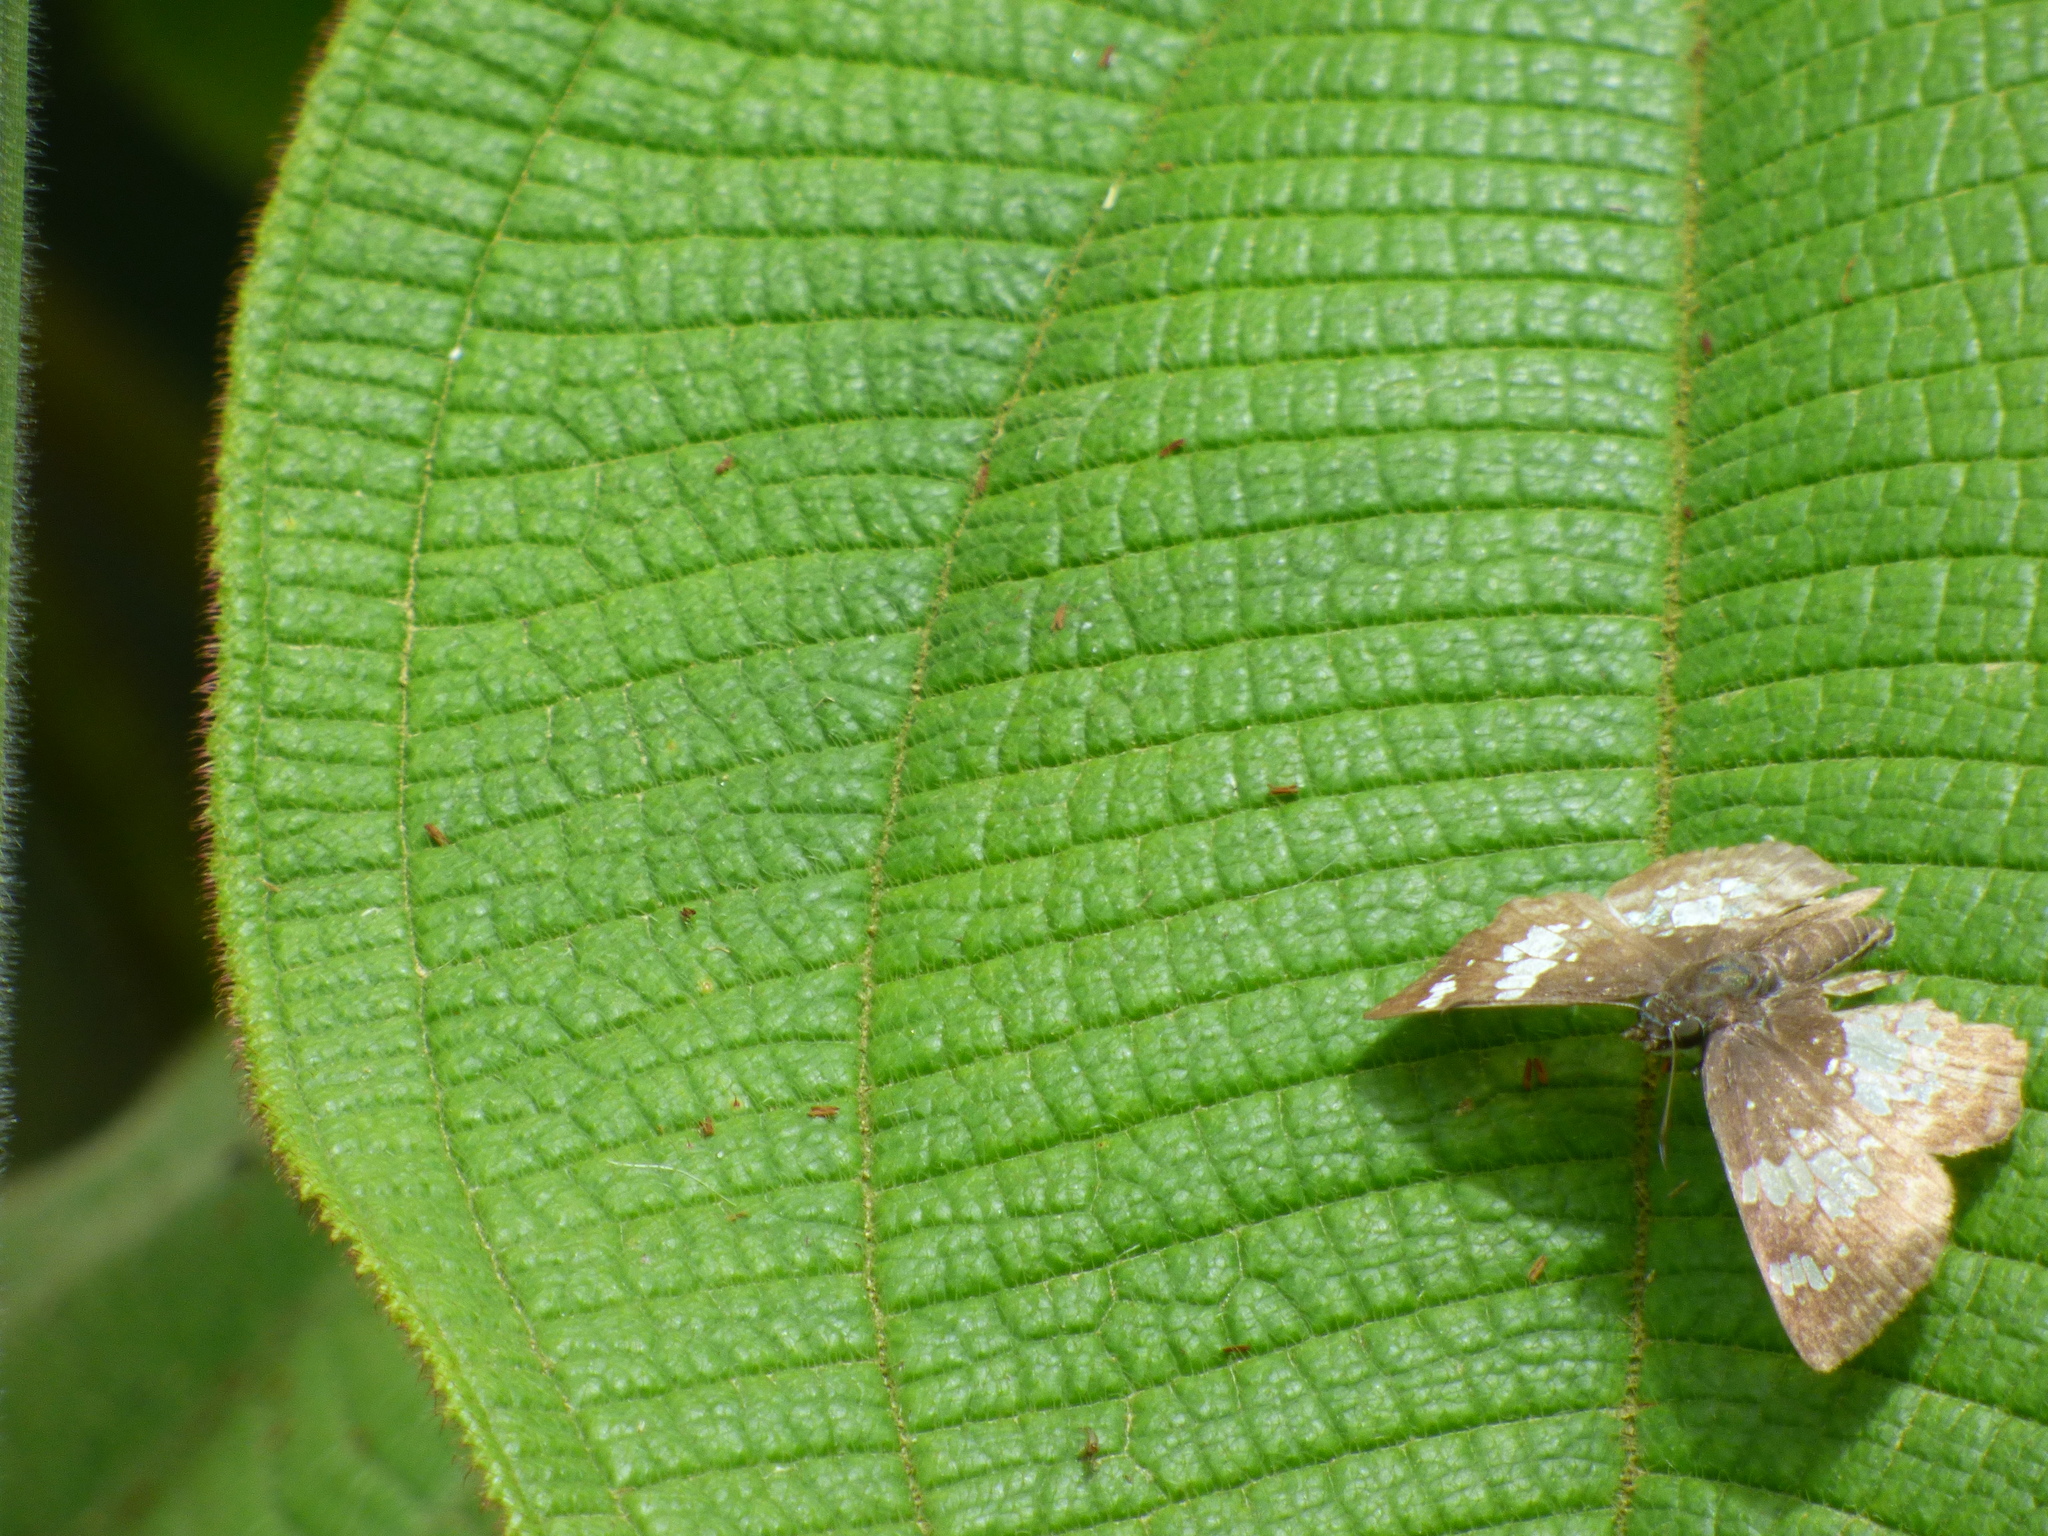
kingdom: Animalia
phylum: Arthropoda
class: Insecta
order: Lepidoptera
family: Hesperiidae
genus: Xenophanes
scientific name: Xenophanes tryxus
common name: Glassy-winged skipper
